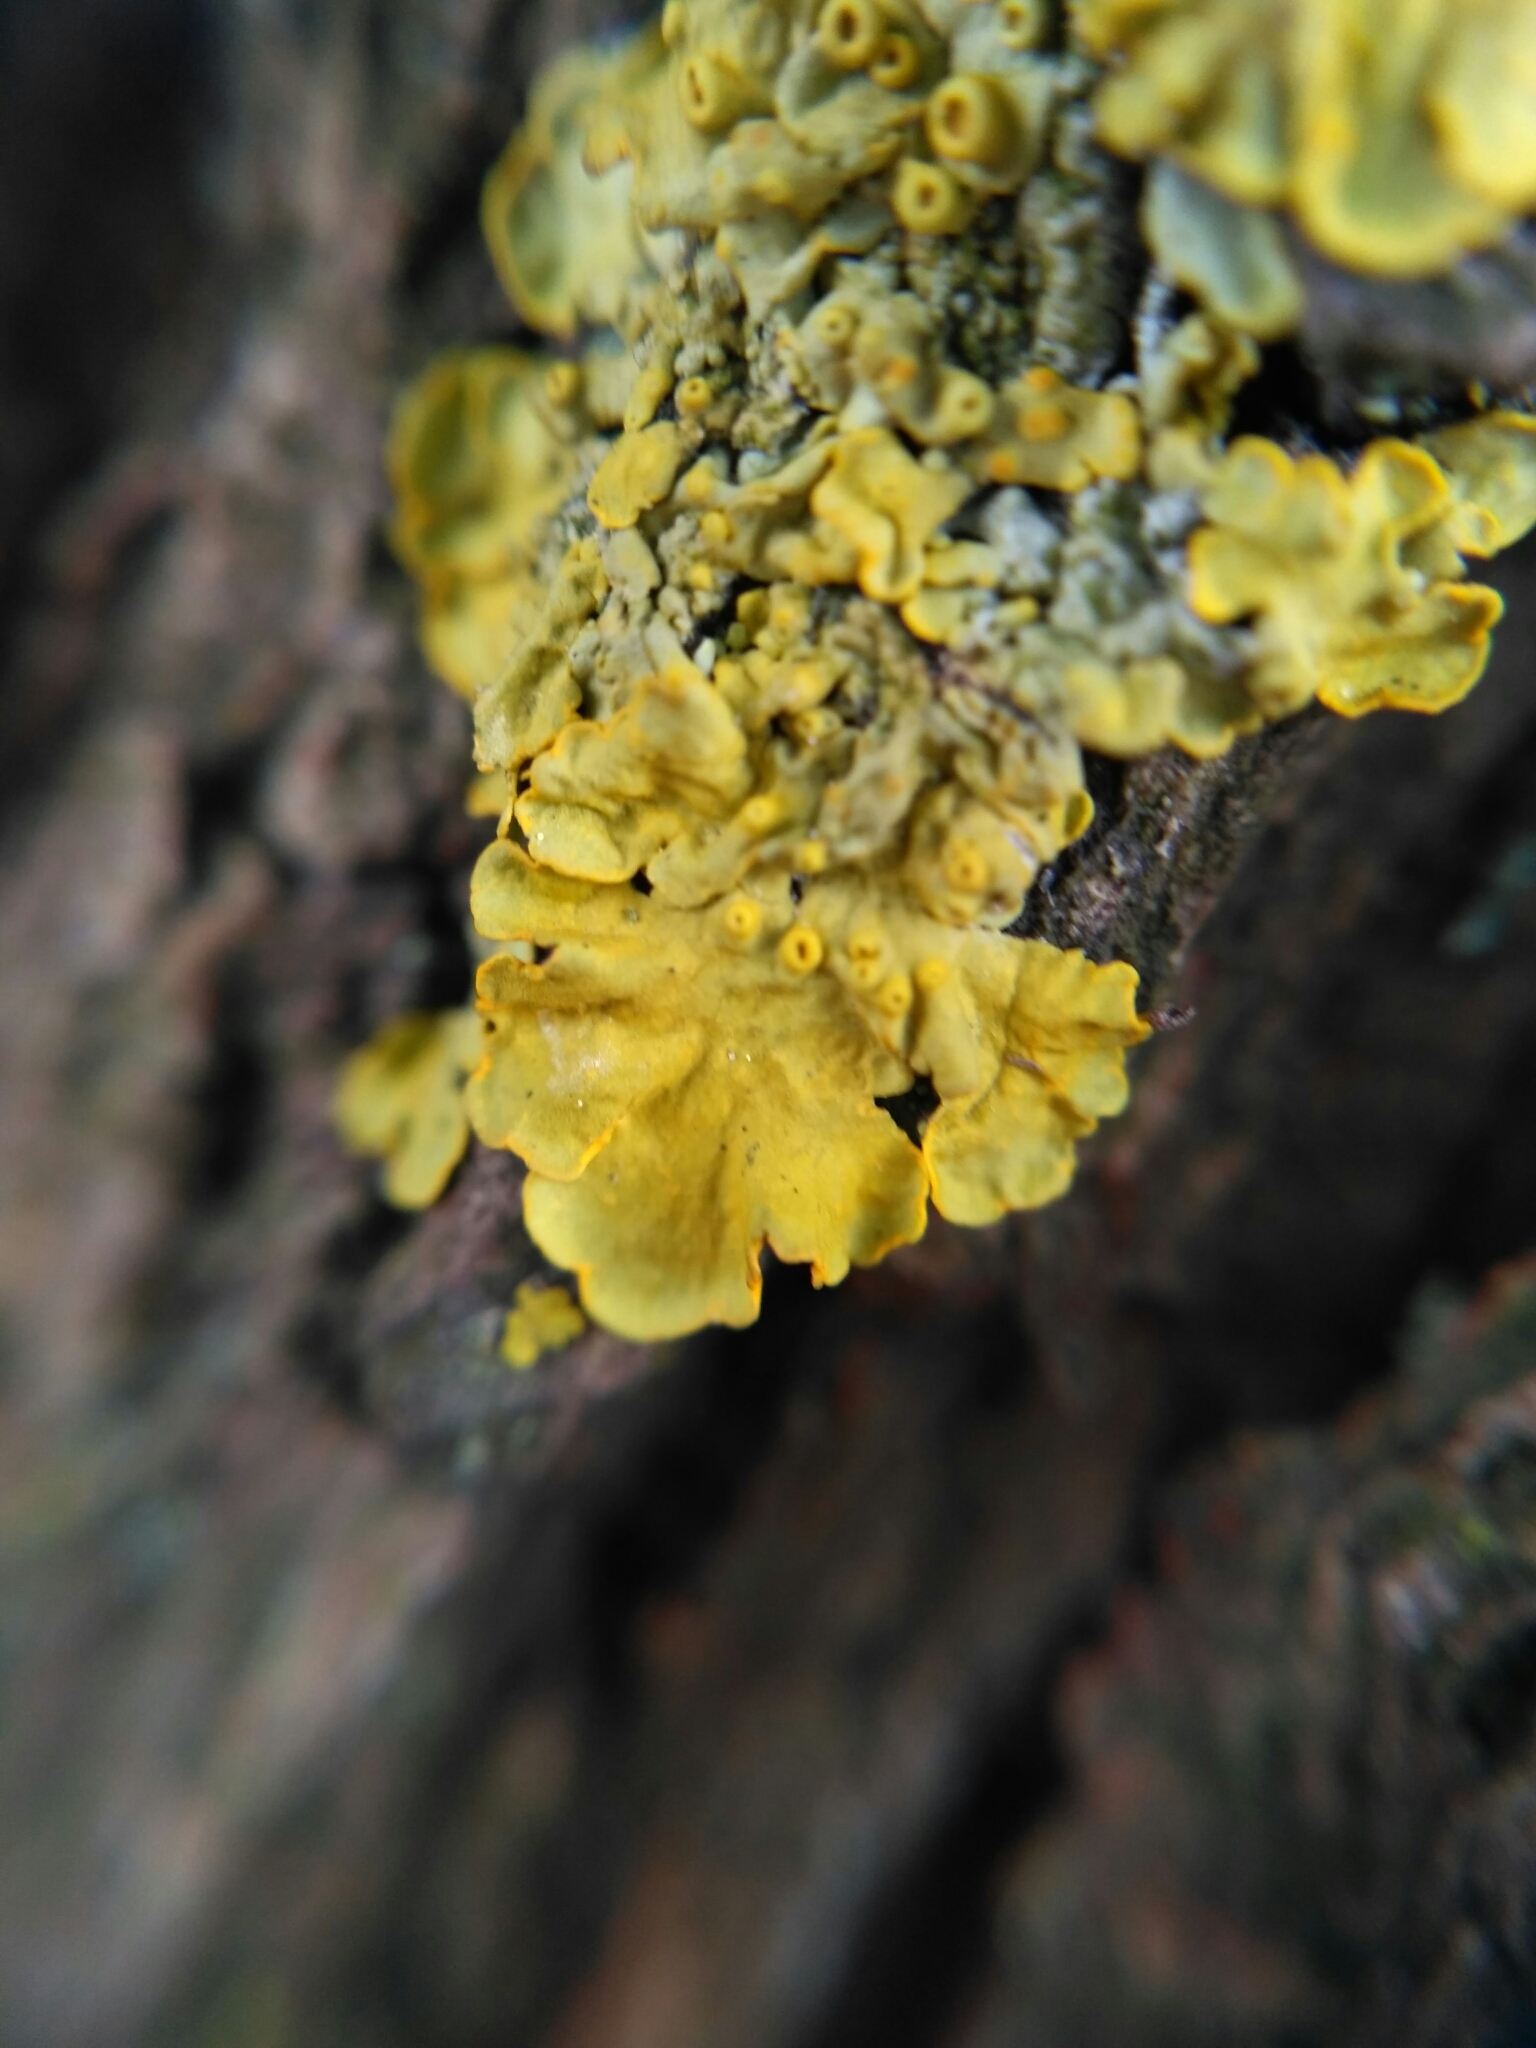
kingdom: Fungi
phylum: Ascomycota
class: Lecanoromycetes
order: Teloschistales
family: Teloschistaceae
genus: Xanthoria
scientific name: Xanthoria parietina
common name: Common orange lichen
